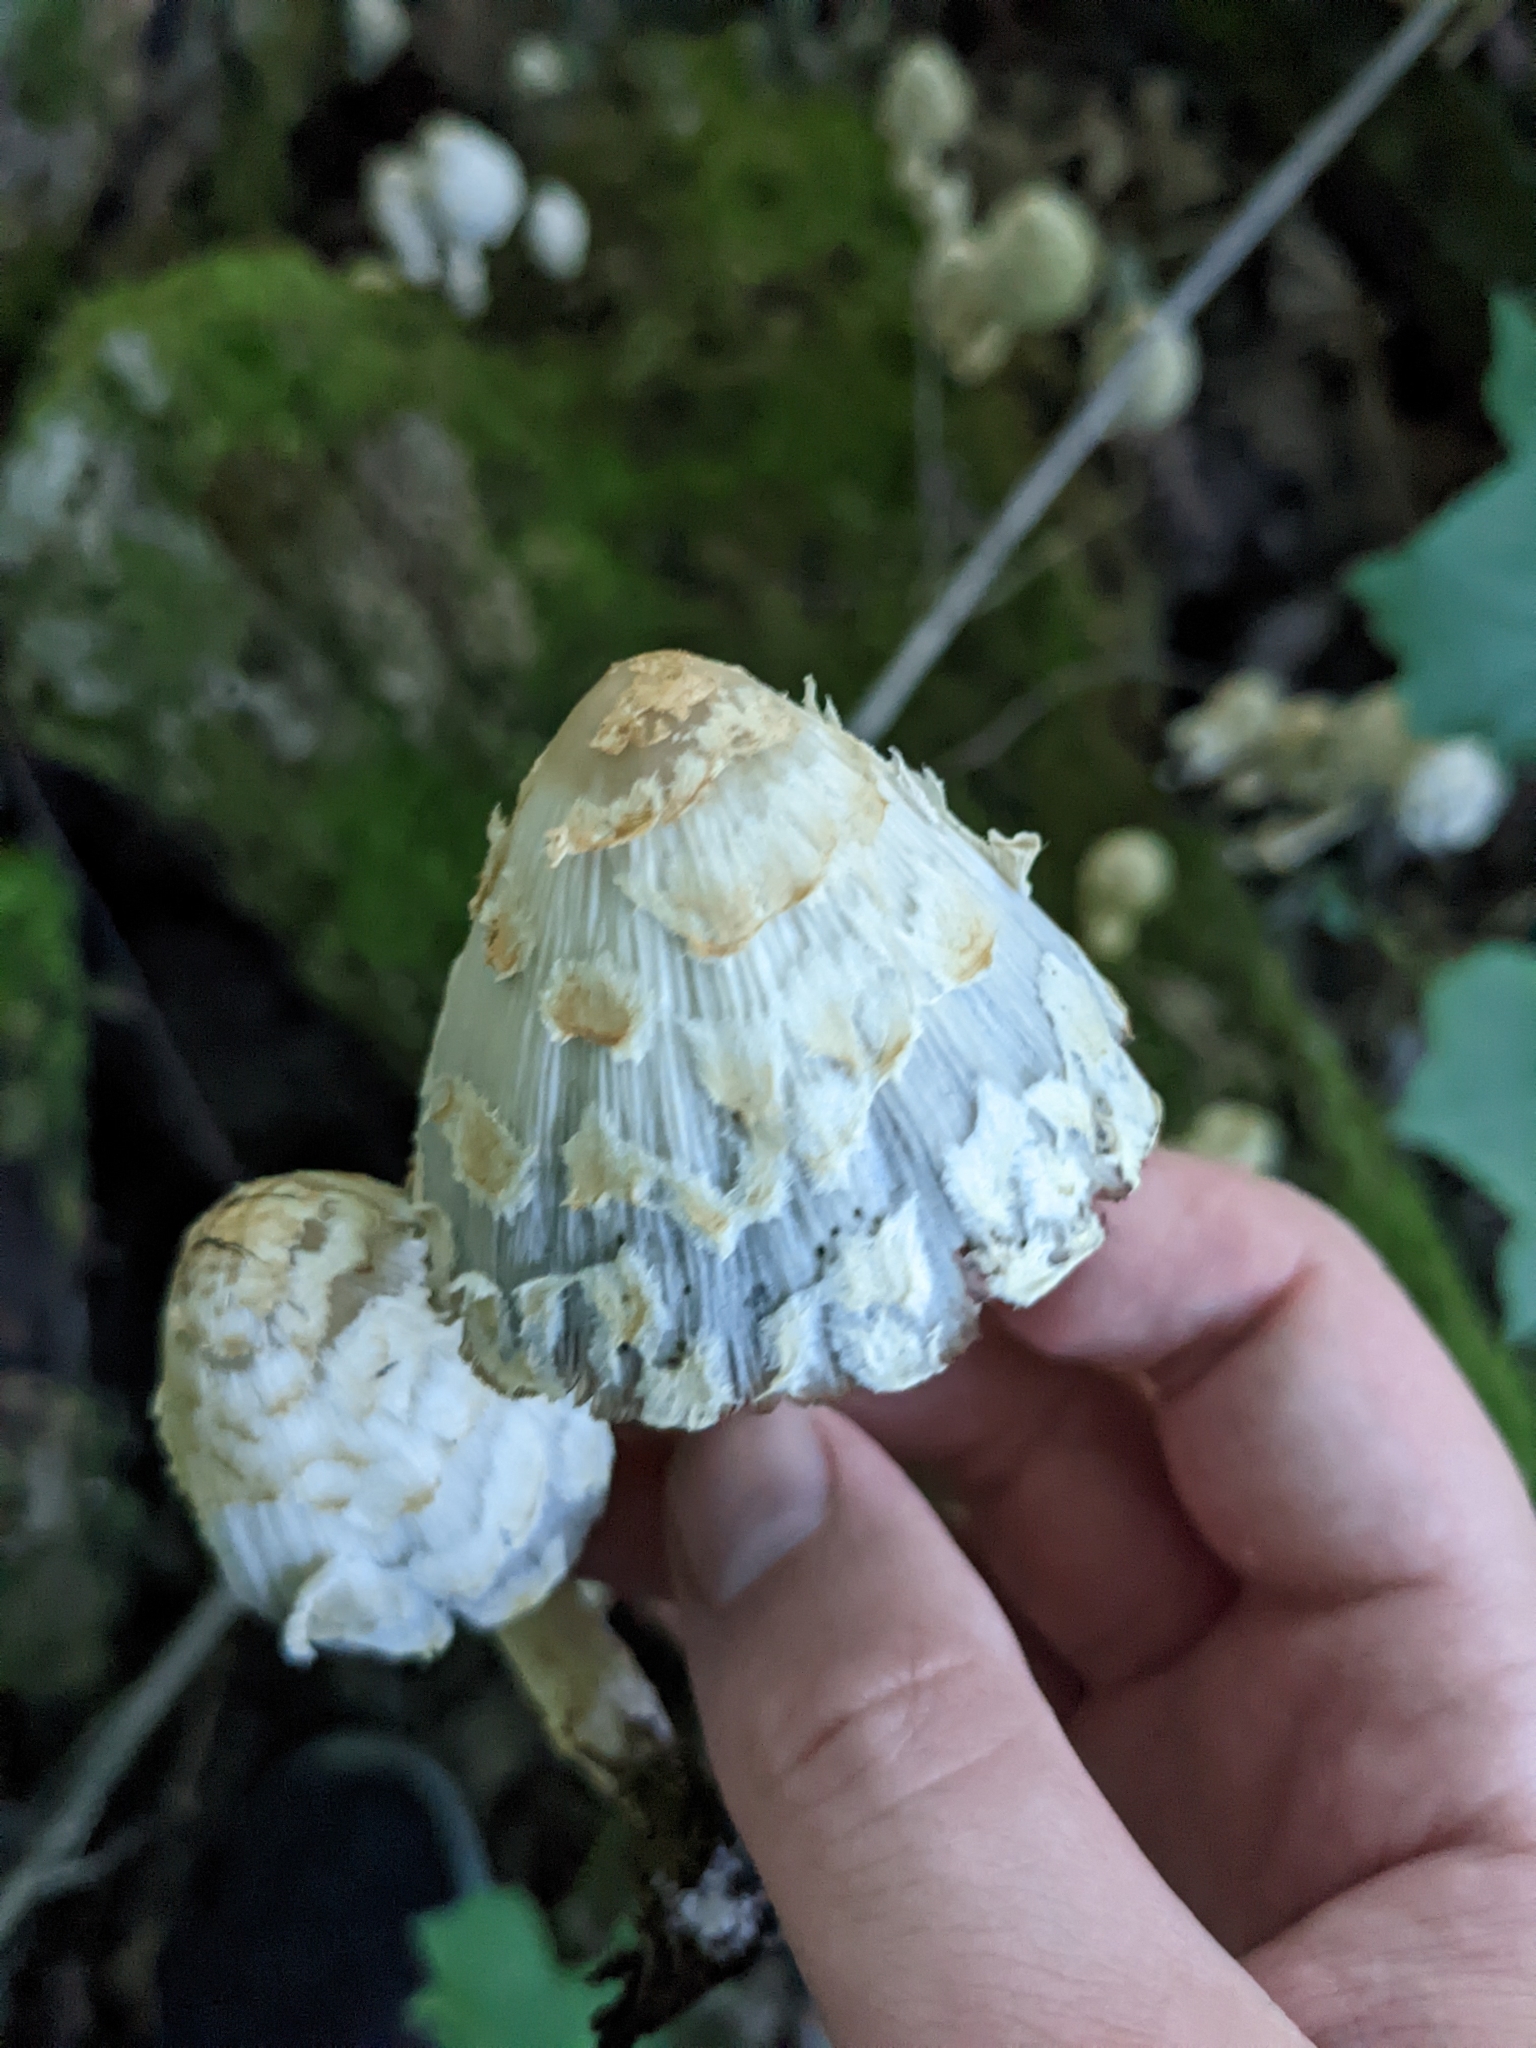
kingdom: Fungi
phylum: Basidiomycota
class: Agaricomycetes
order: Agaricales
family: Psathyrellaceae
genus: Coprinopsis
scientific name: Coprinopsis variegata
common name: Scaly ink cap
